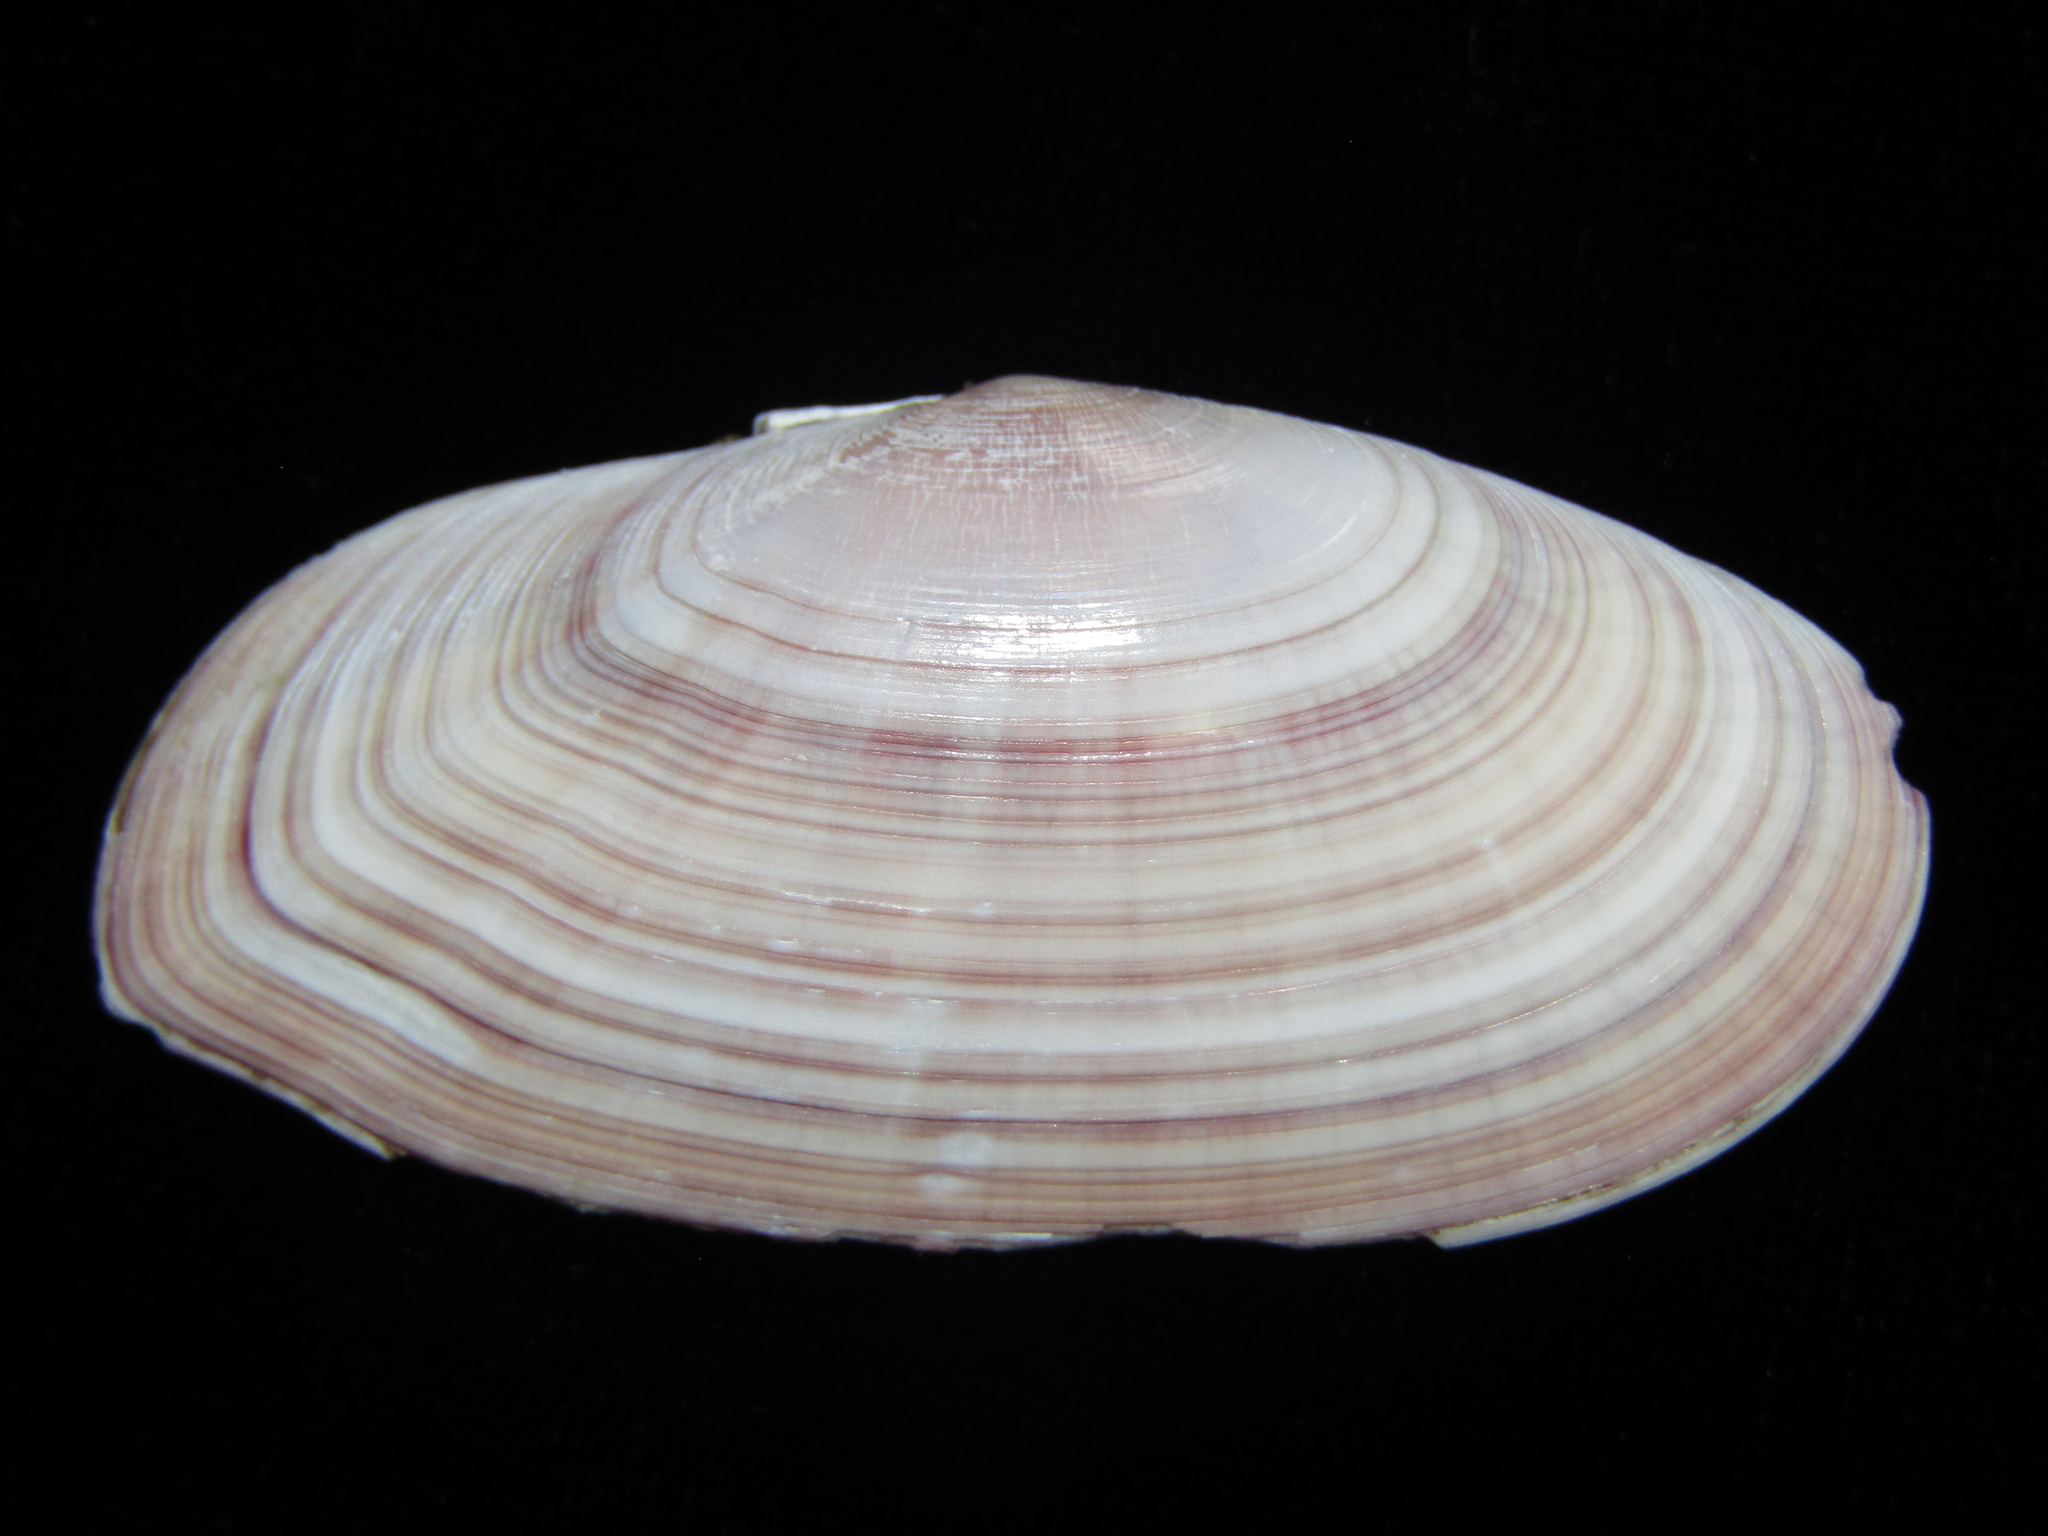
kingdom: Animalia
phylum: Mollusca
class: Bivalvia
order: Cardiida
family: Psammobiidae
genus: Gari
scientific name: Gari convexa
